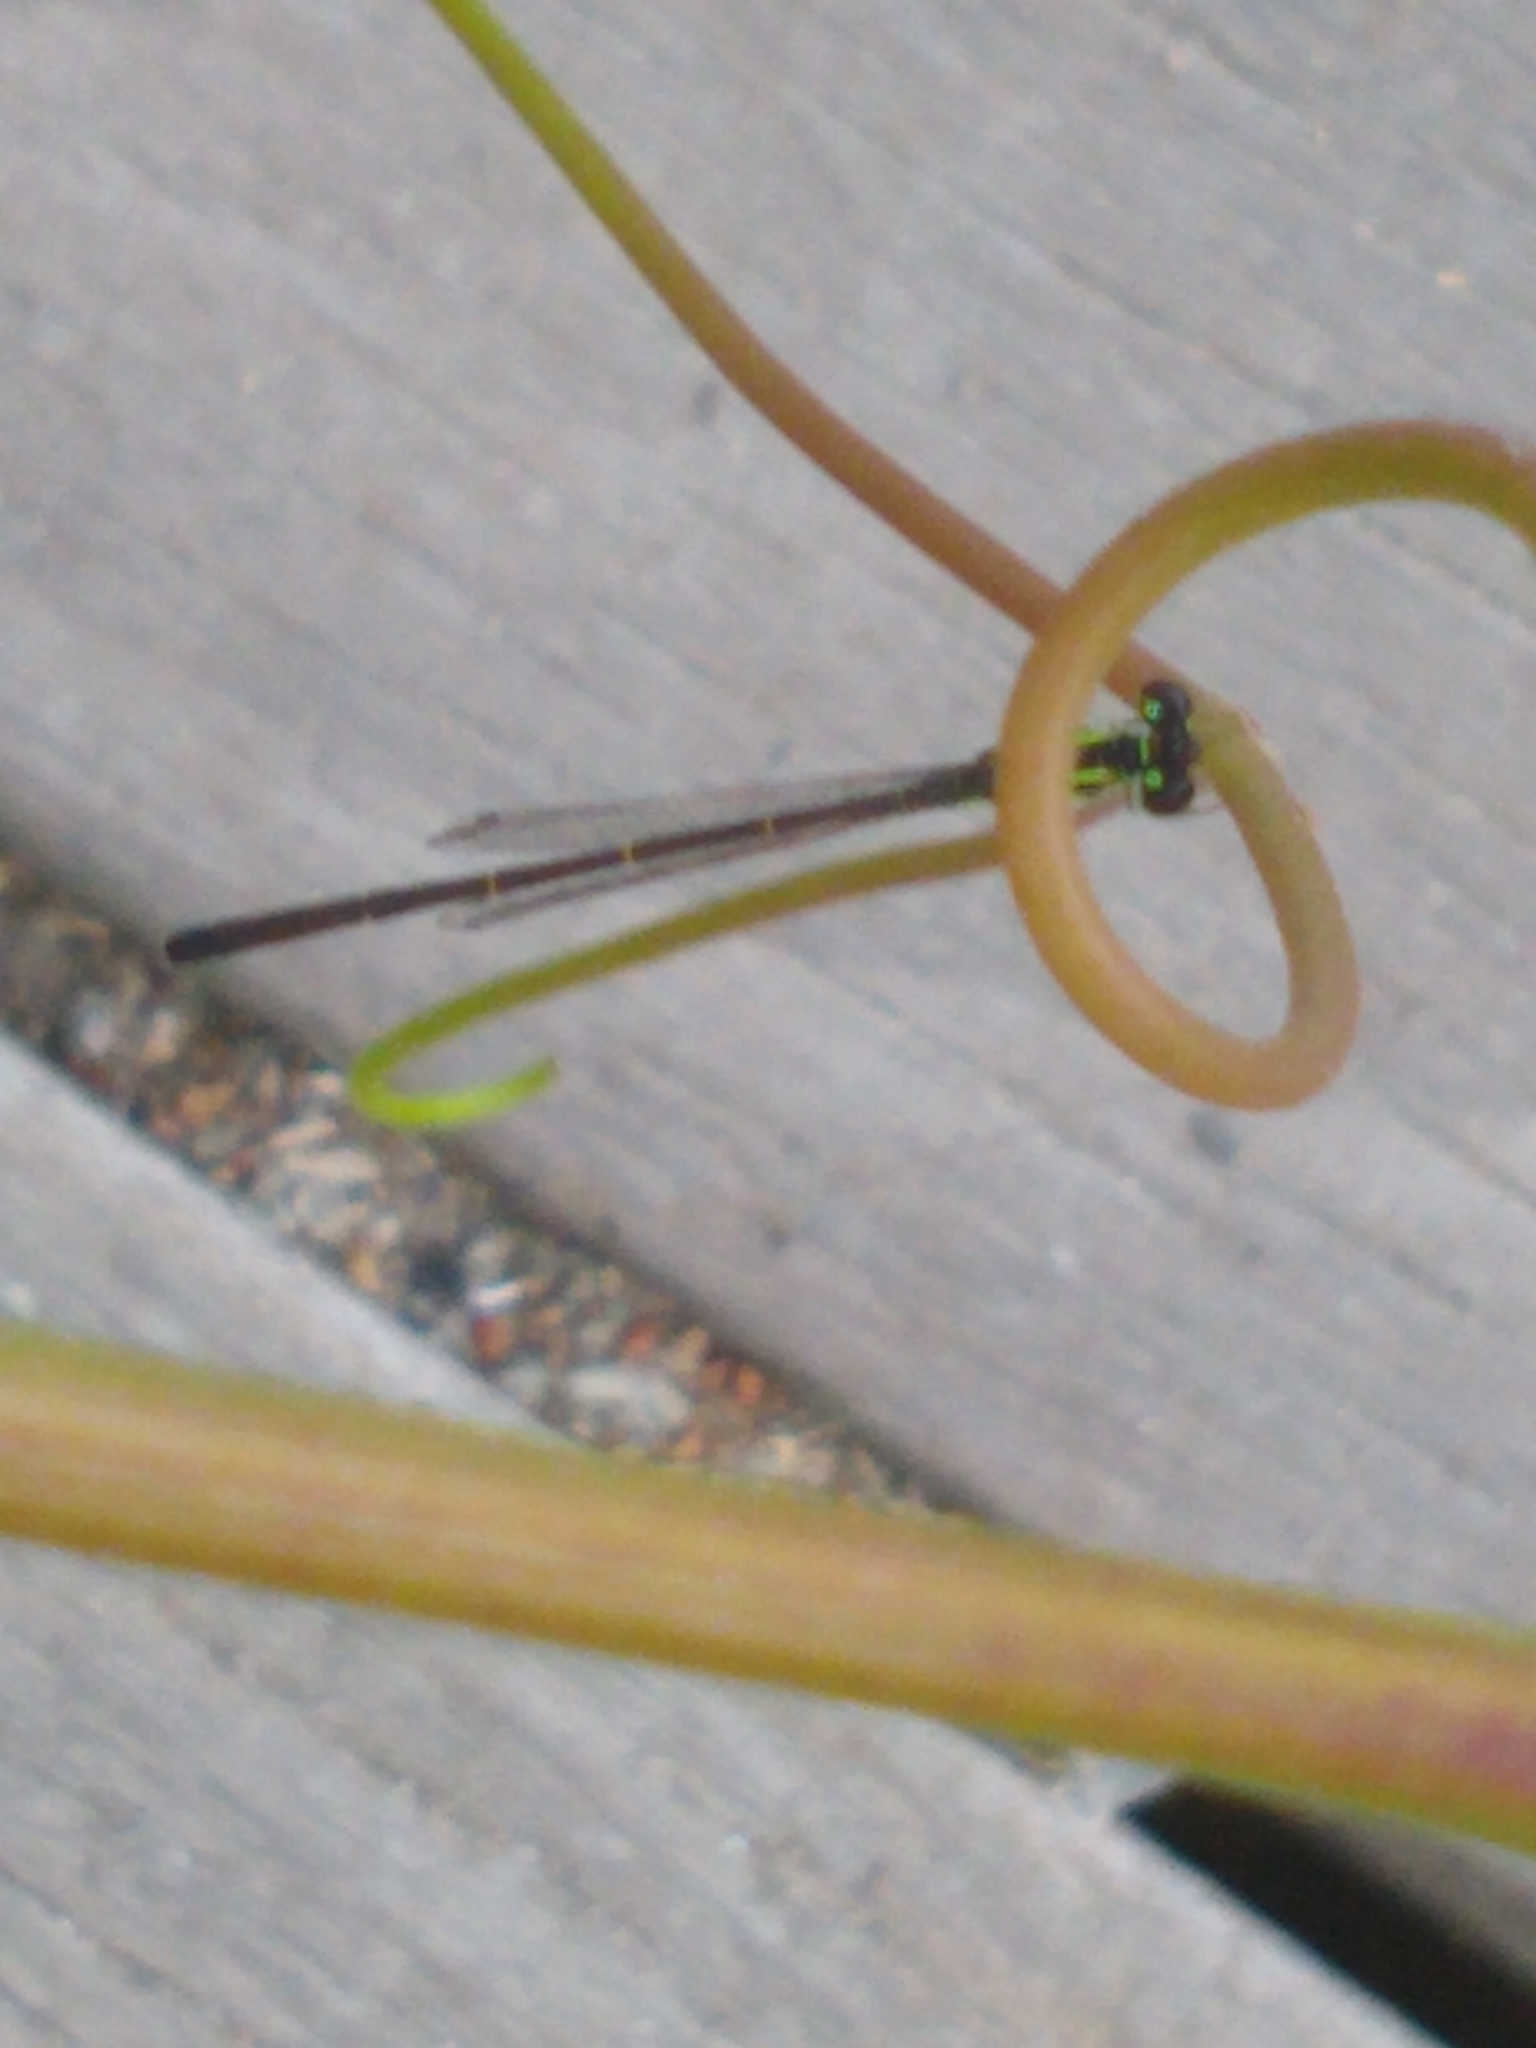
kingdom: Animalia
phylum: Arthropoda
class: Insecta
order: Odonata
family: Coenagrionidae
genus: Ischnura
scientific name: Ischnura posita
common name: Fragile forktail
